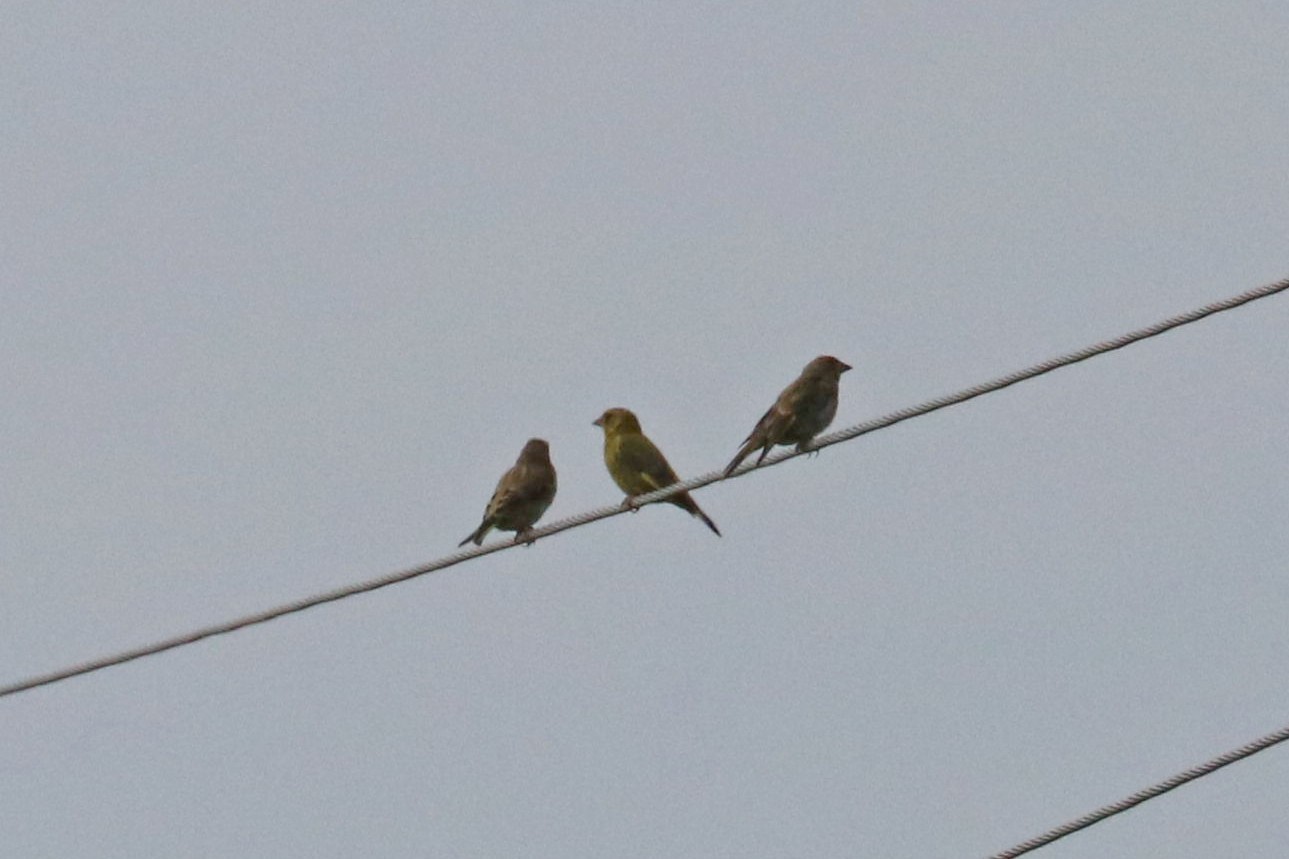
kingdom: Plantae
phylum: Tracheophyta
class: Liliopsida
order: Poales
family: Poaceae
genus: Chloris
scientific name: Chloris chloris
